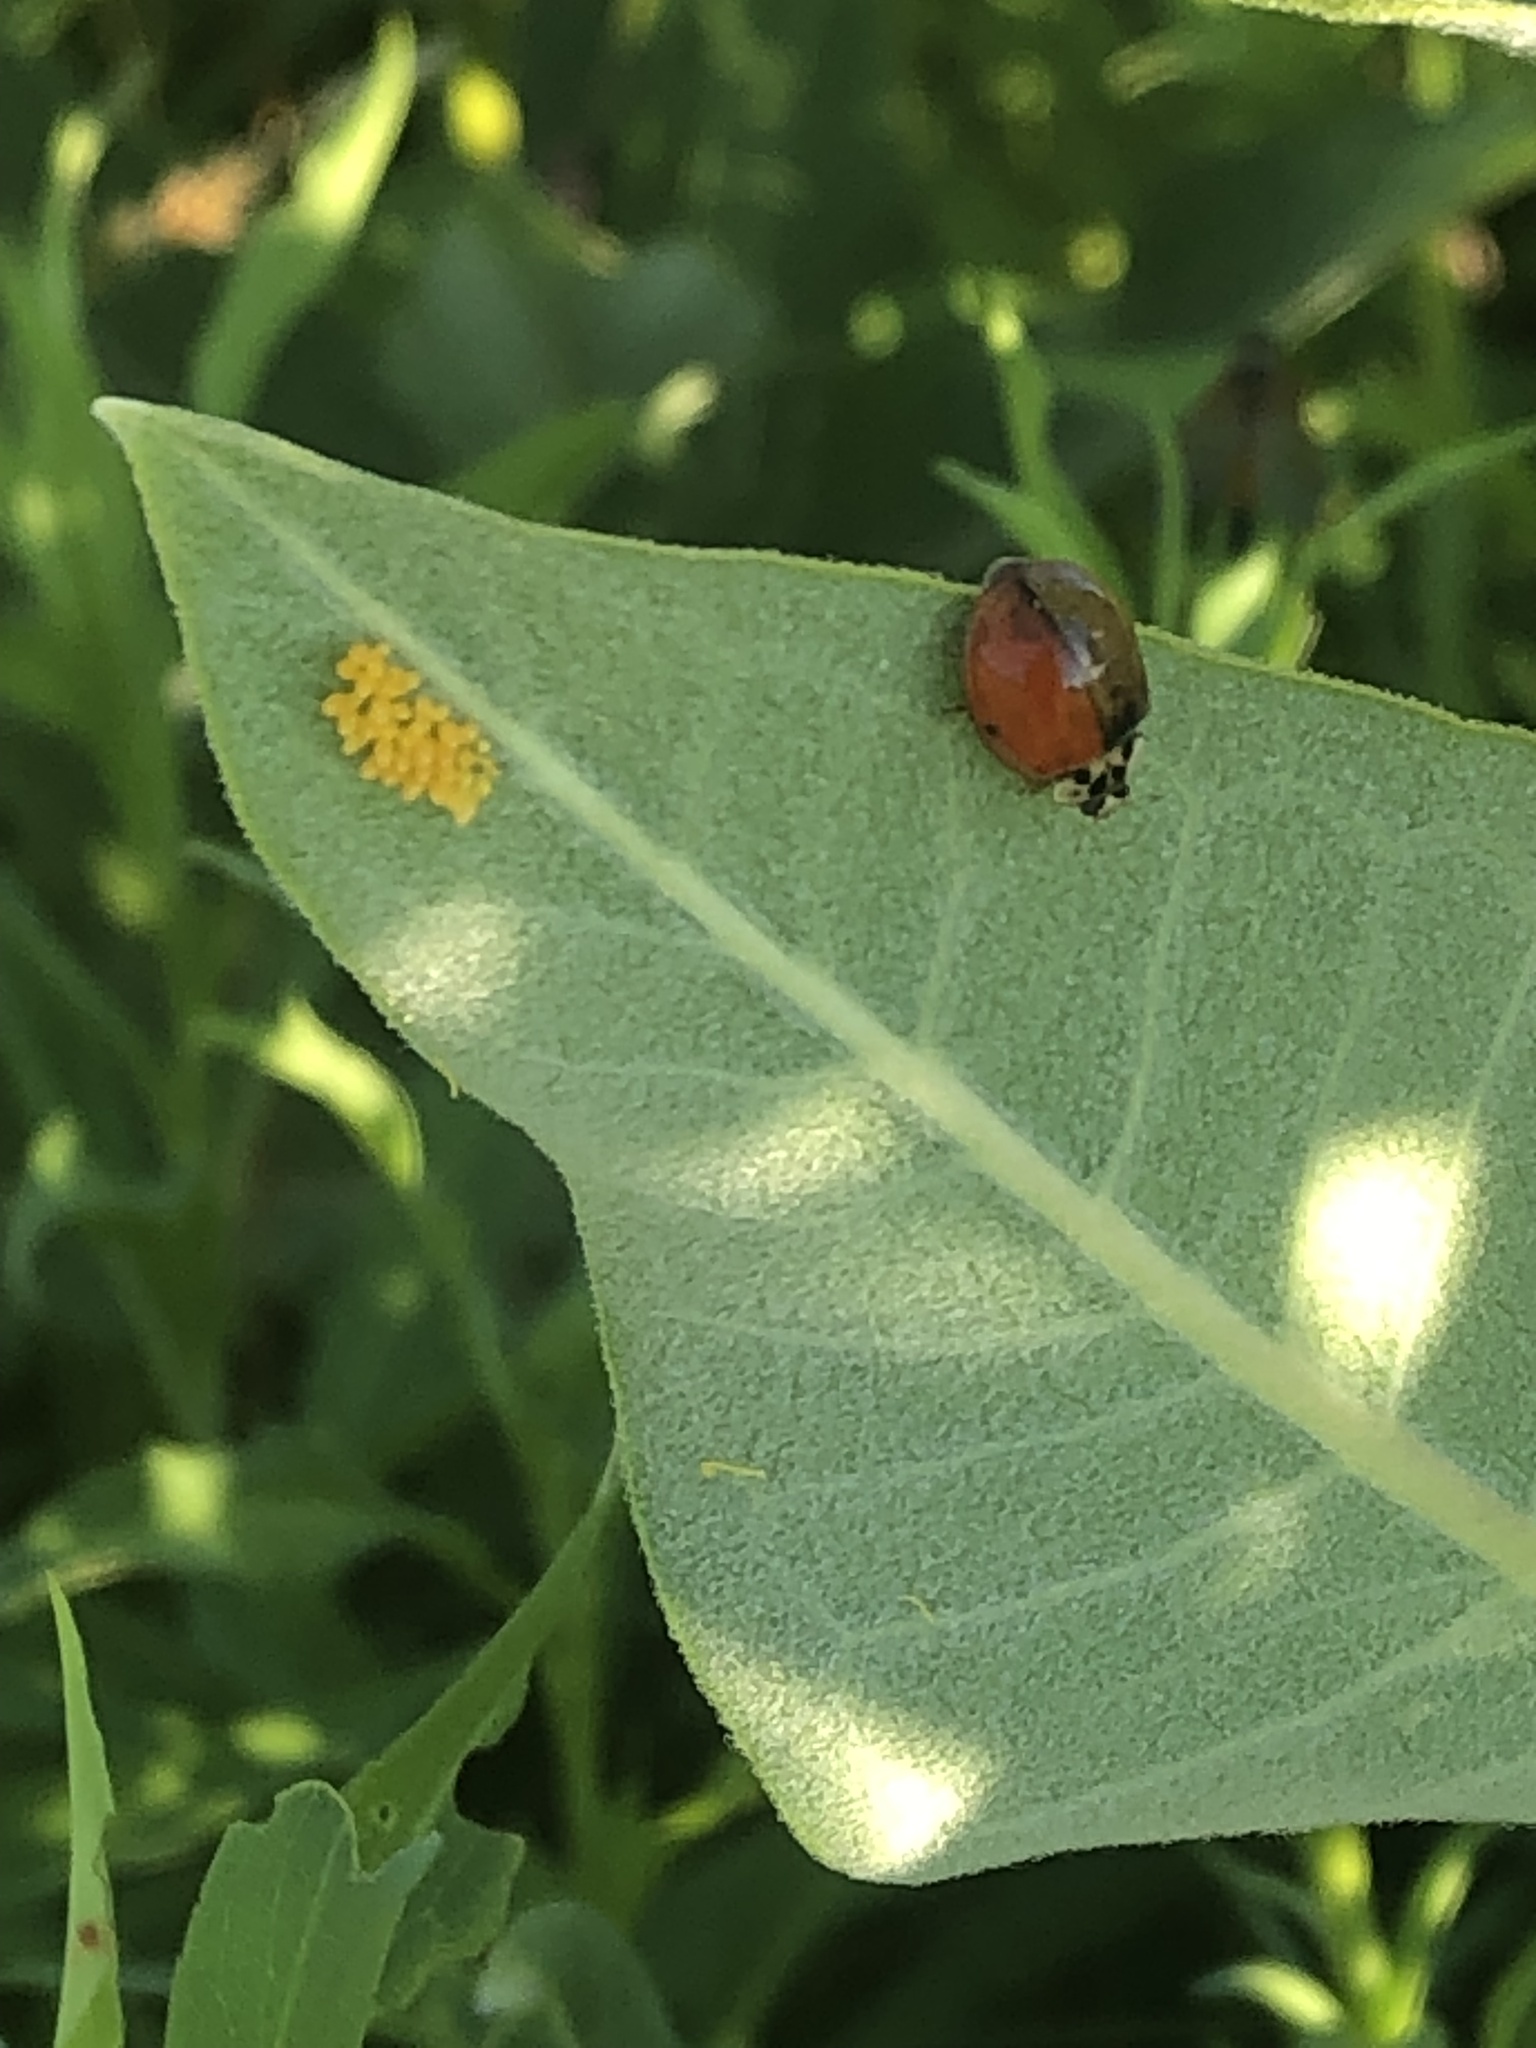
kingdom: Animalia
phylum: Arthropoda
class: Insecta
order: Coleoptera
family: Coccinellidae
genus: Harmonia
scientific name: Harmonia axyridis
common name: Harlequin ladybird
